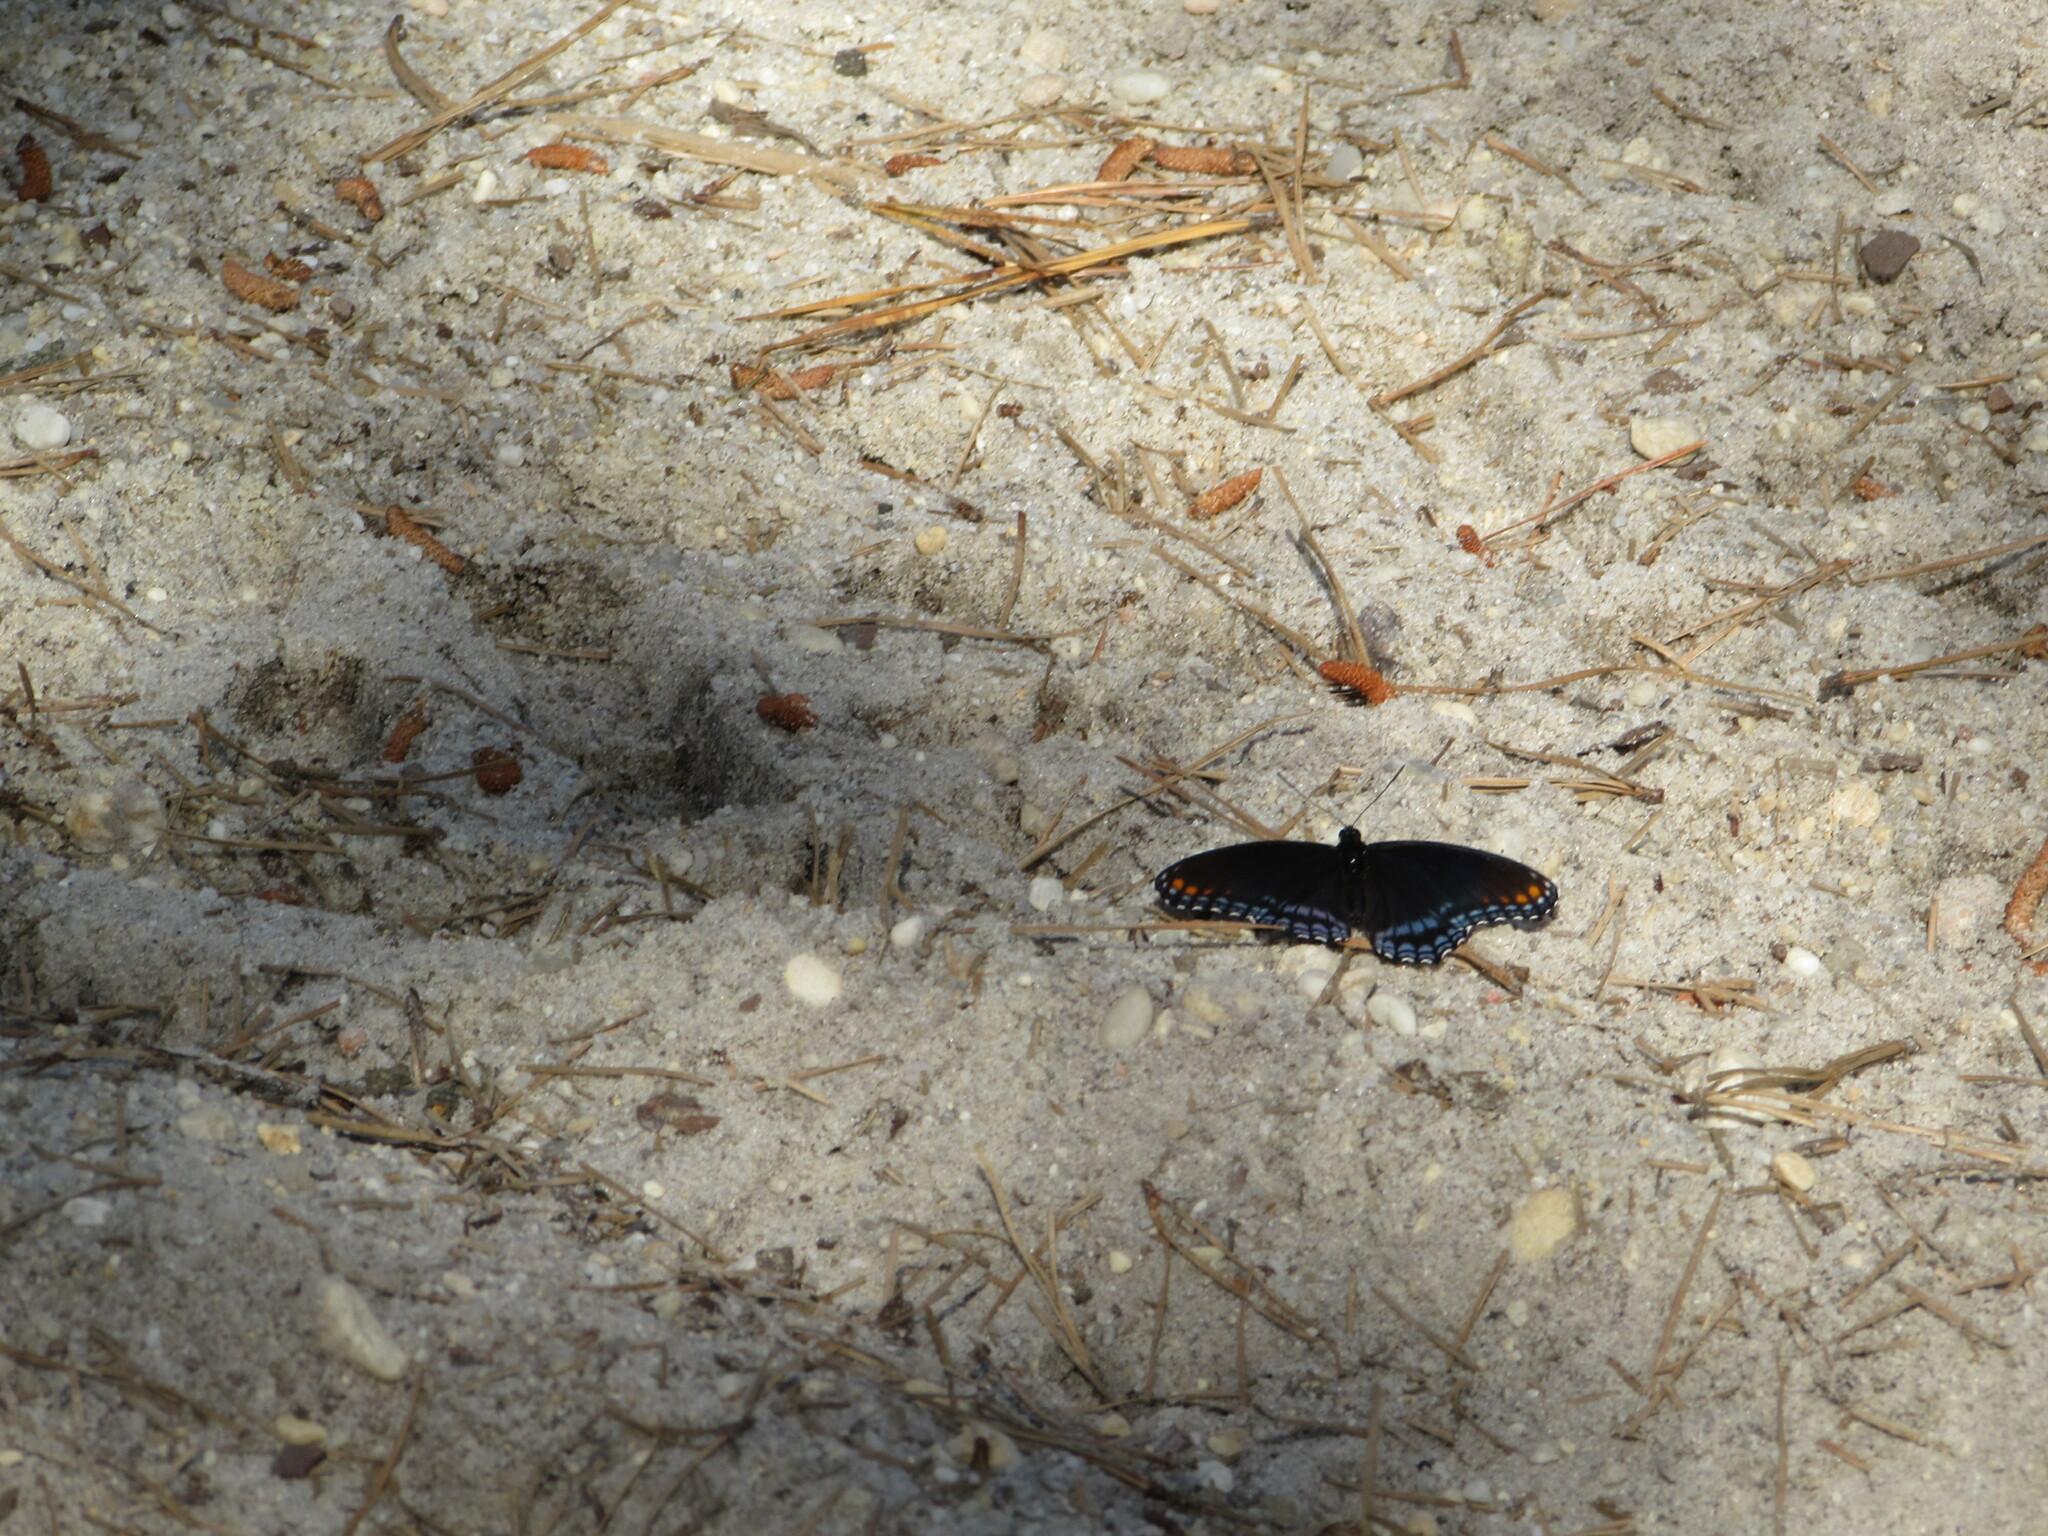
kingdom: Animalia
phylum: Arthropoda
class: Insecta
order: Lepidoptera
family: Nymphalidae
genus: Limenitis
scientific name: Limenitis astyanax
